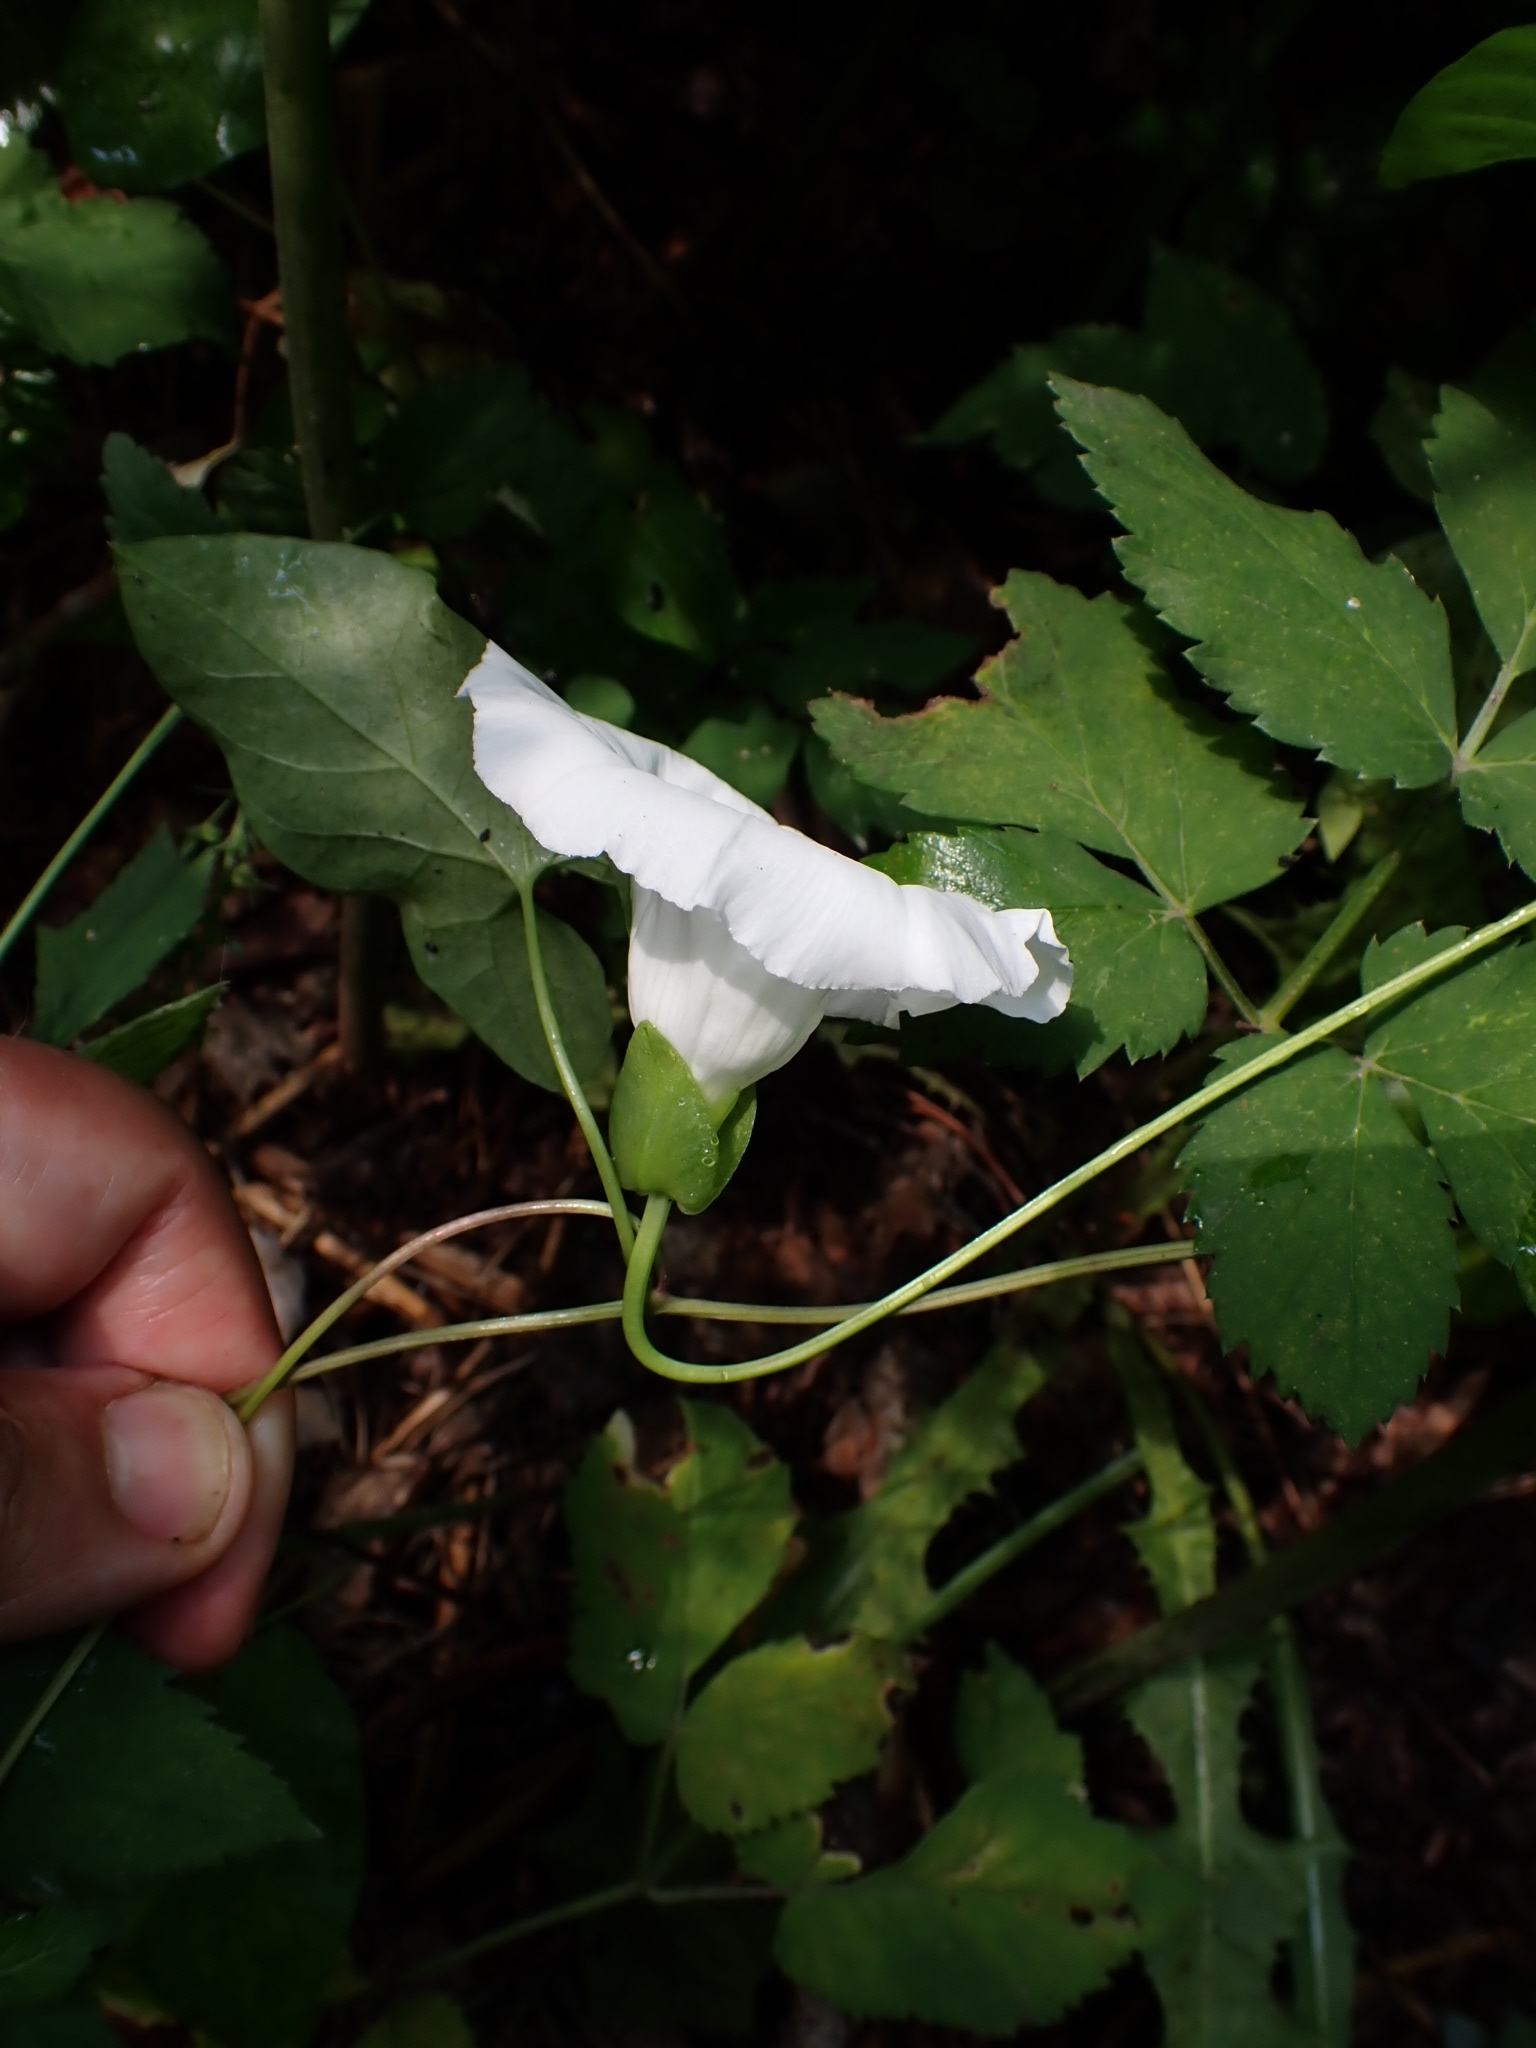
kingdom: Plantae
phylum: Tracheophyta
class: Magnoliopsida
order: Solanales
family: Convolvulaceae
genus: Calystegia
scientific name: Calystegia sepium
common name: Hedge bindweed
